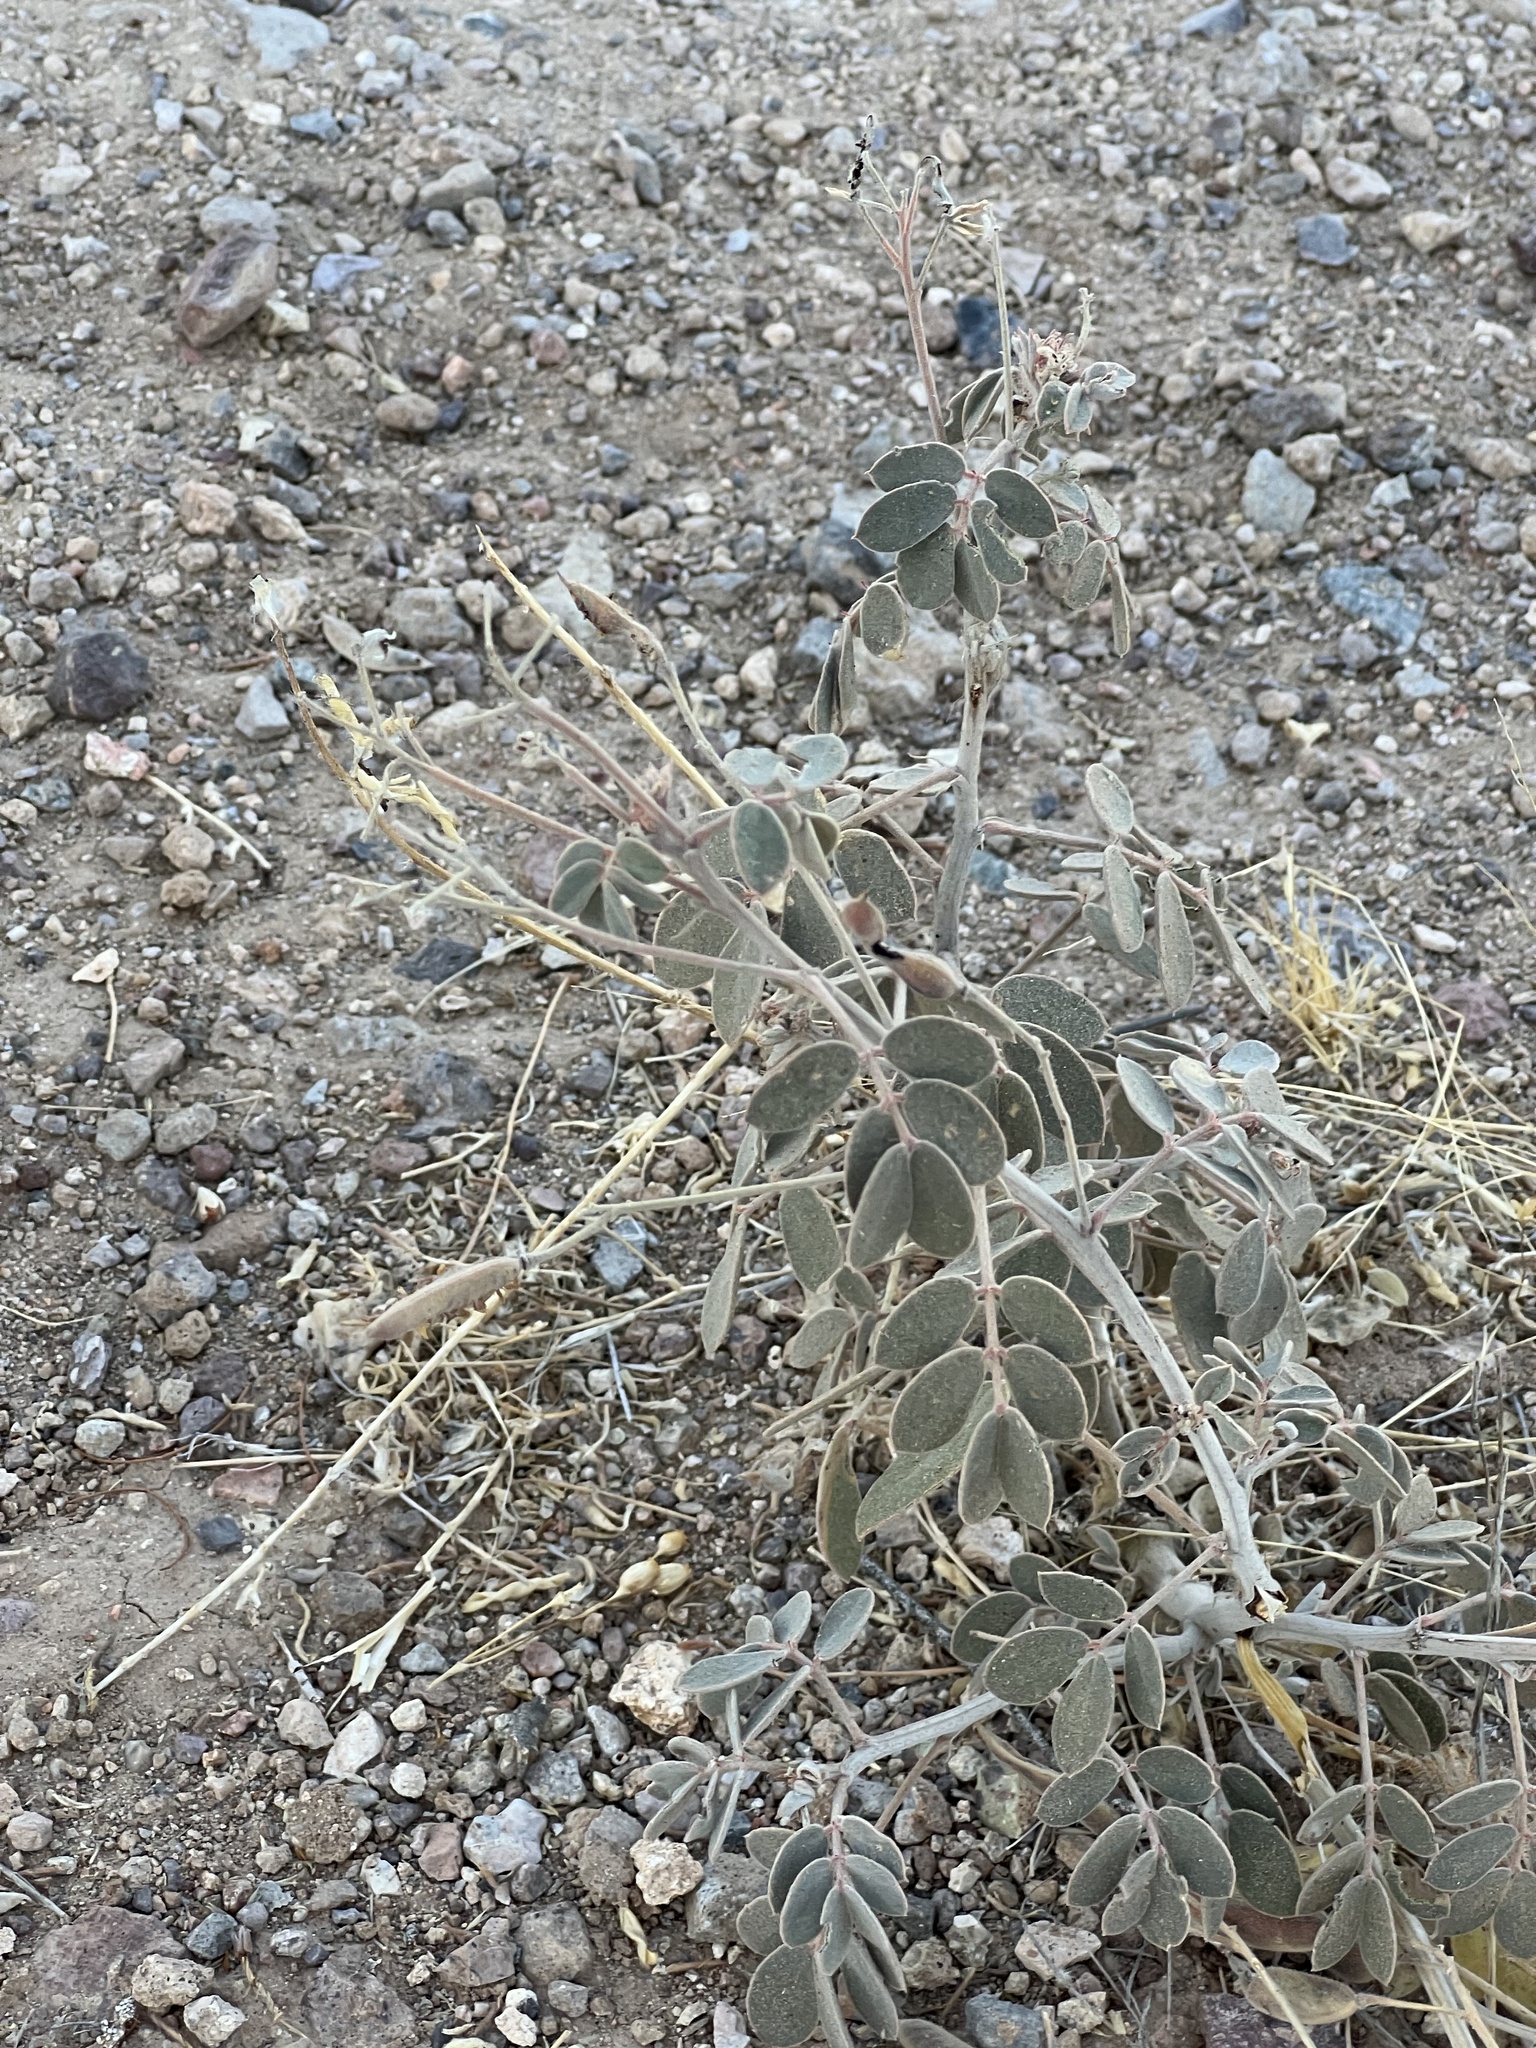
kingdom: Plantae
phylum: Tracheophyta
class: Magnoliopsida
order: Fabales
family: Fabaceae
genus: Senna
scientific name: Senna covesii
